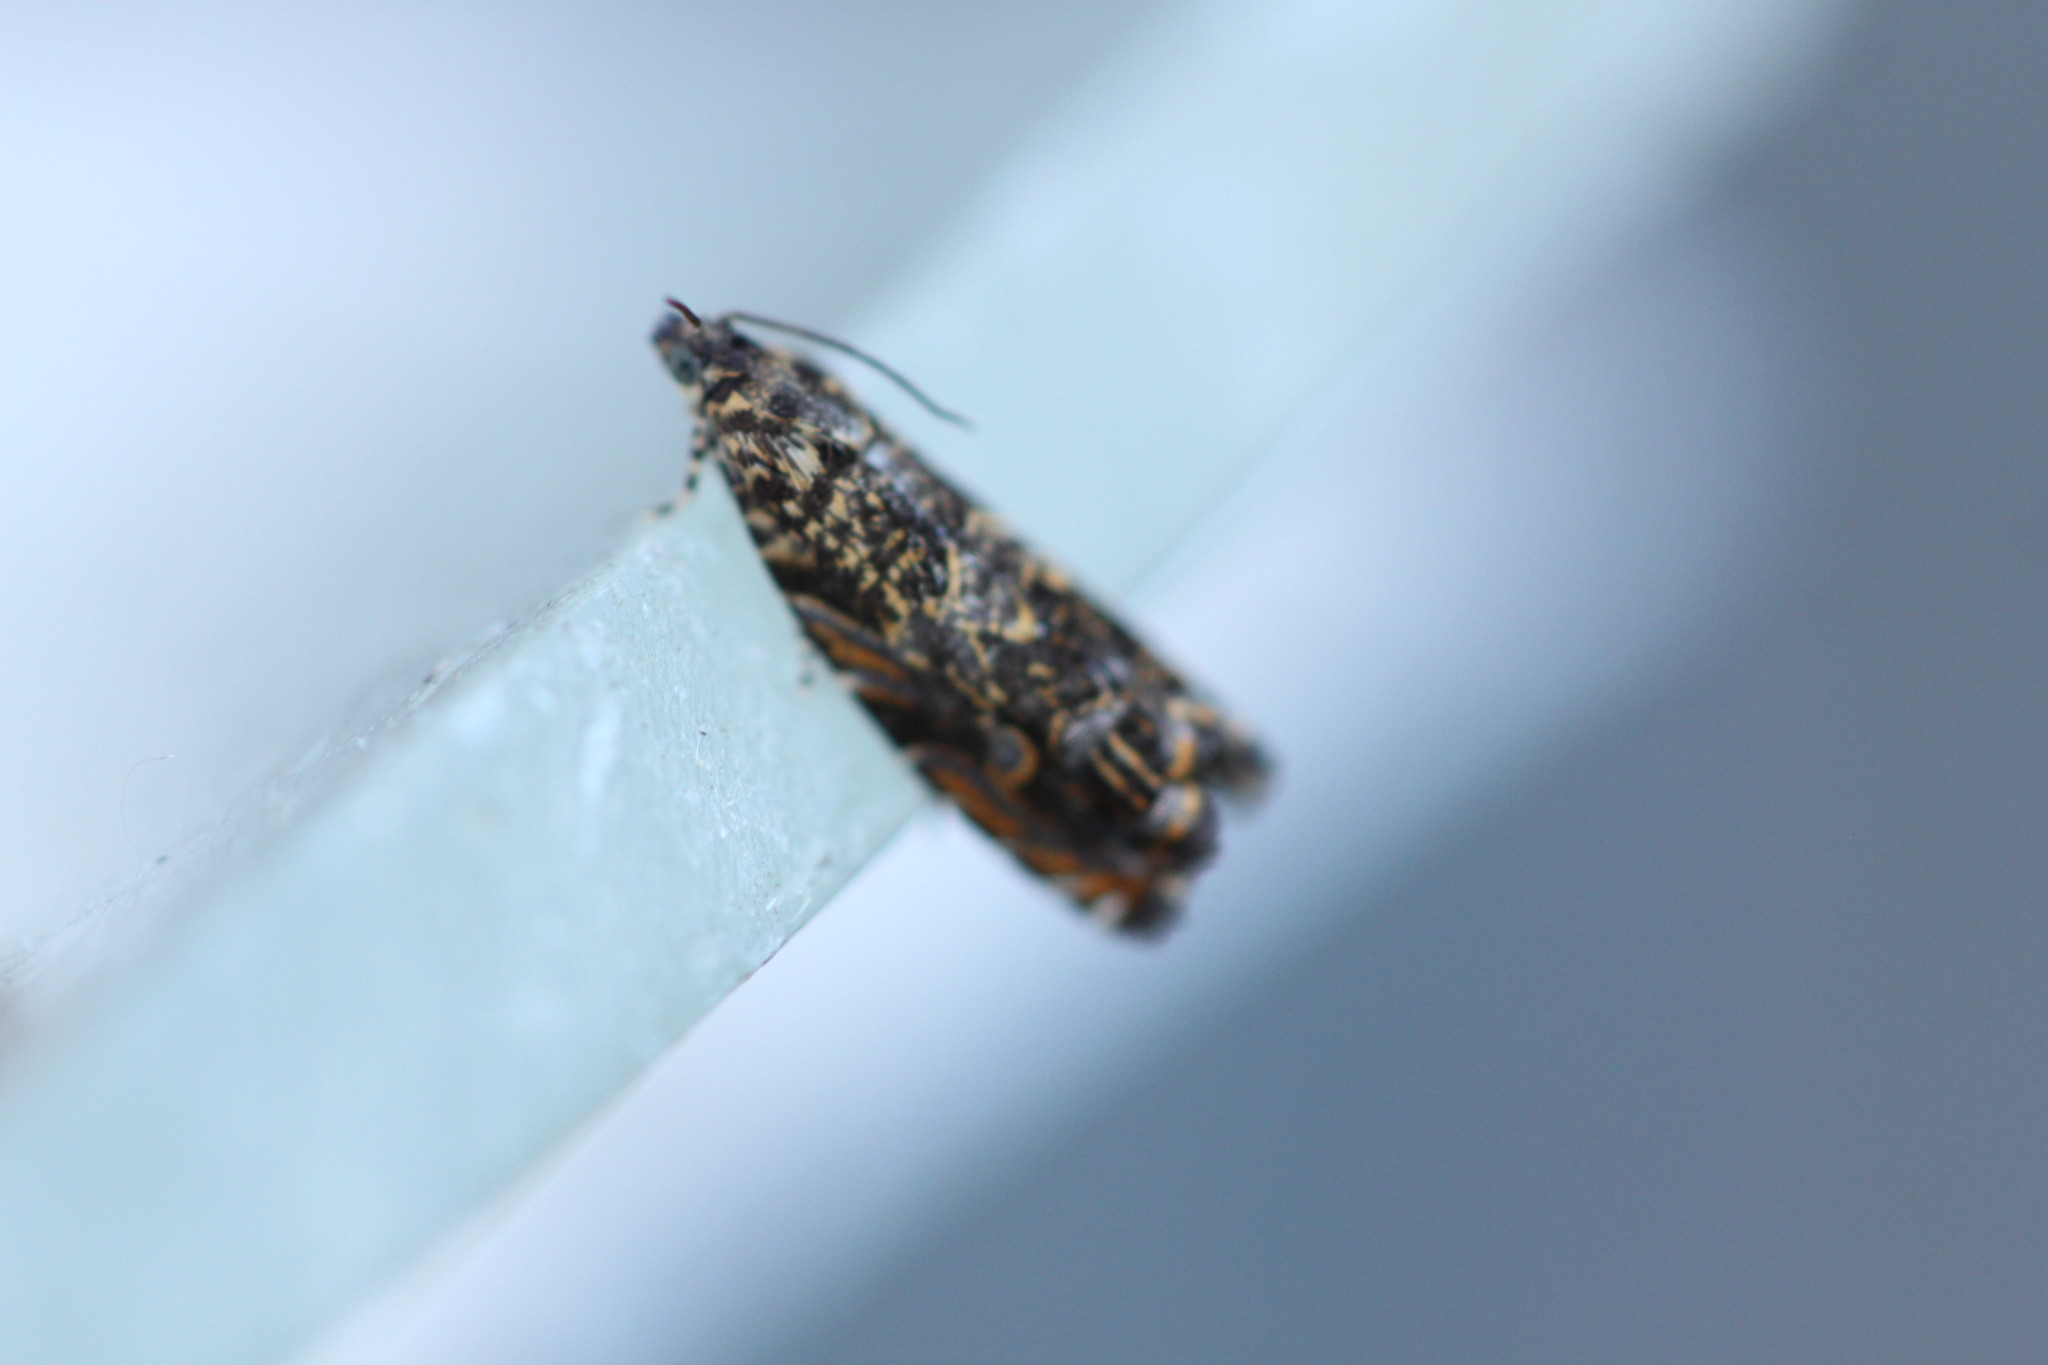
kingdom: Animalia
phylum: Arthropoda
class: Insecta
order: Lepidoptera
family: Tortricidae
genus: Enarmonia
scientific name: Enarmonia formosana
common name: Cherry bark tortrix
